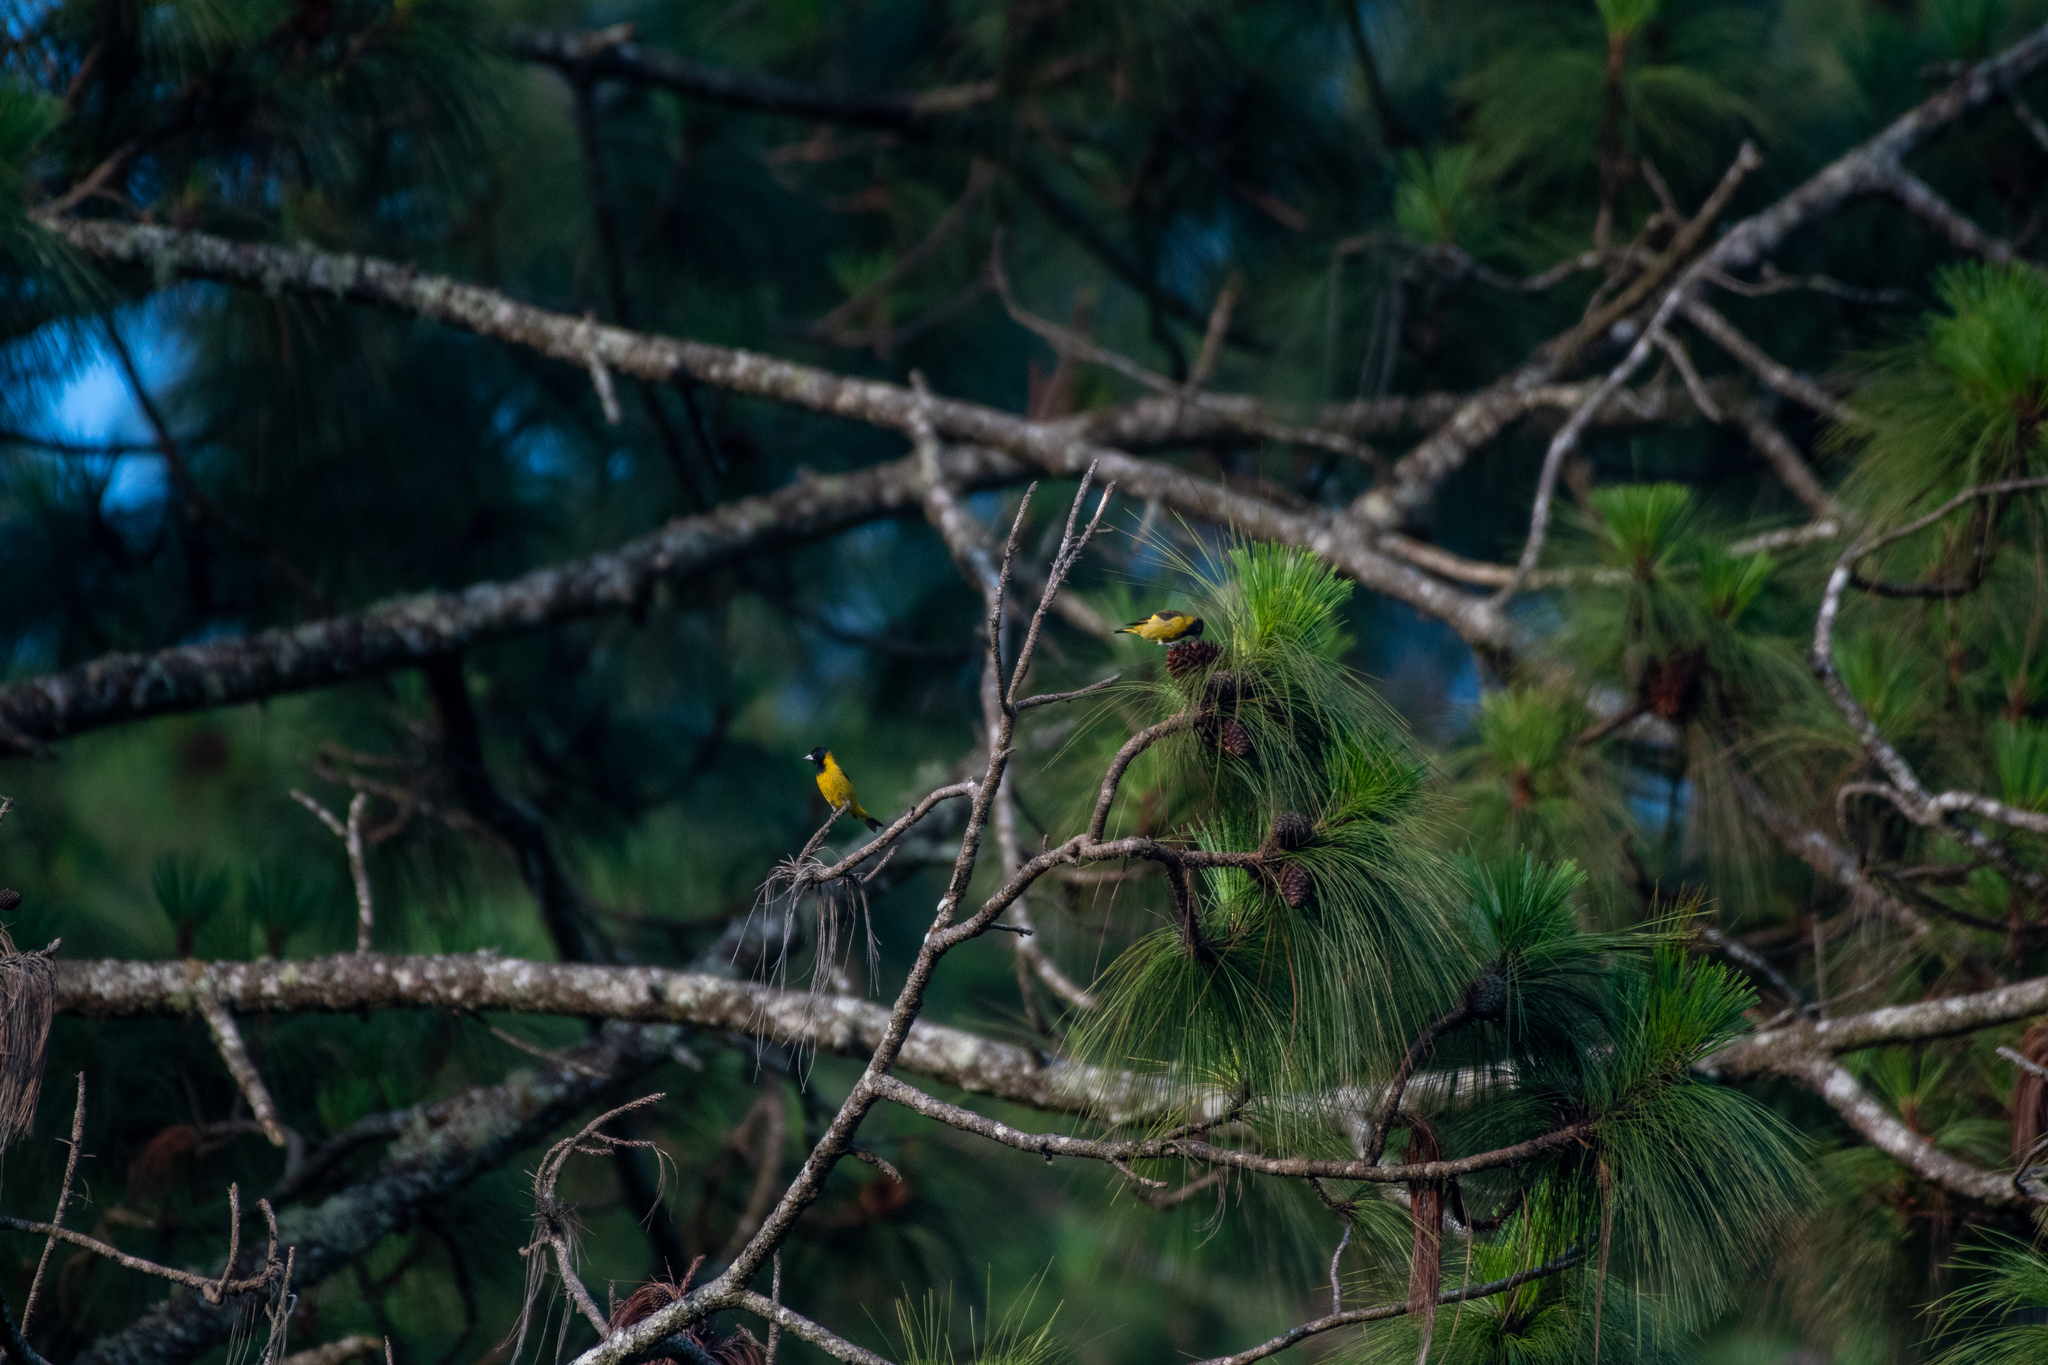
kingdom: Animalia
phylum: Chordata
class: Aves
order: Passeriformes
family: Fringillidae
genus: Spinus
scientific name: Spinus notatus
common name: Black-headed siskin
